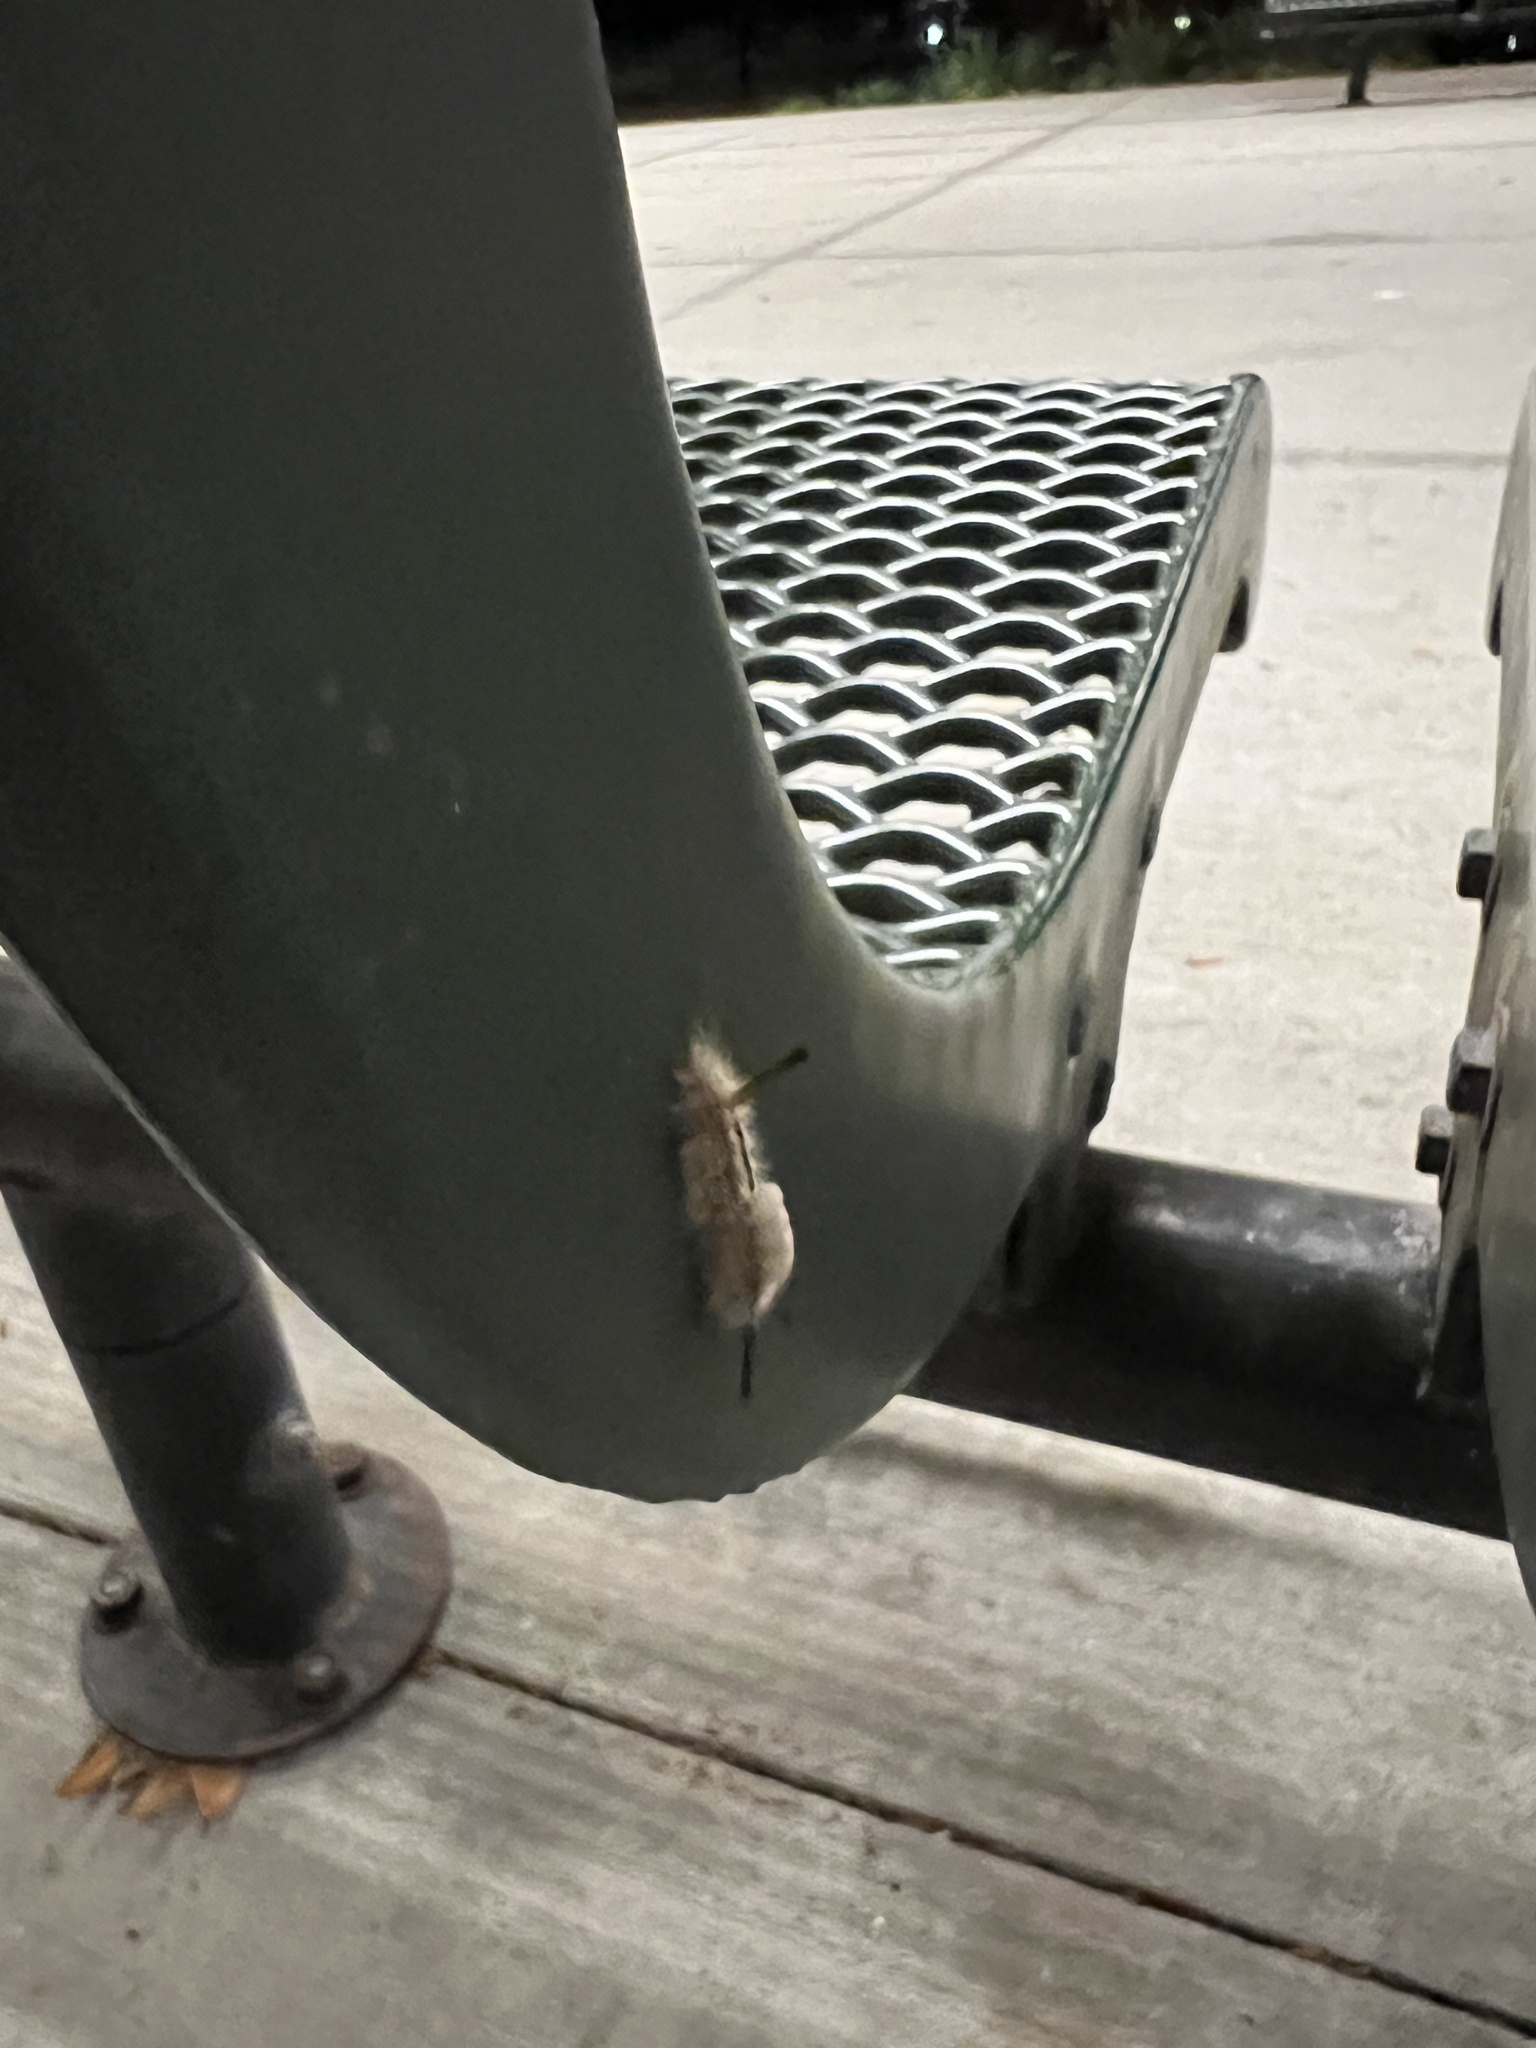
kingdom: Animalia
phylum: Arthropoda
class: Insecta
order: Lepidoptera
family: Erebidae
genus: Orgyia
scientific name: Orgyia detrita
